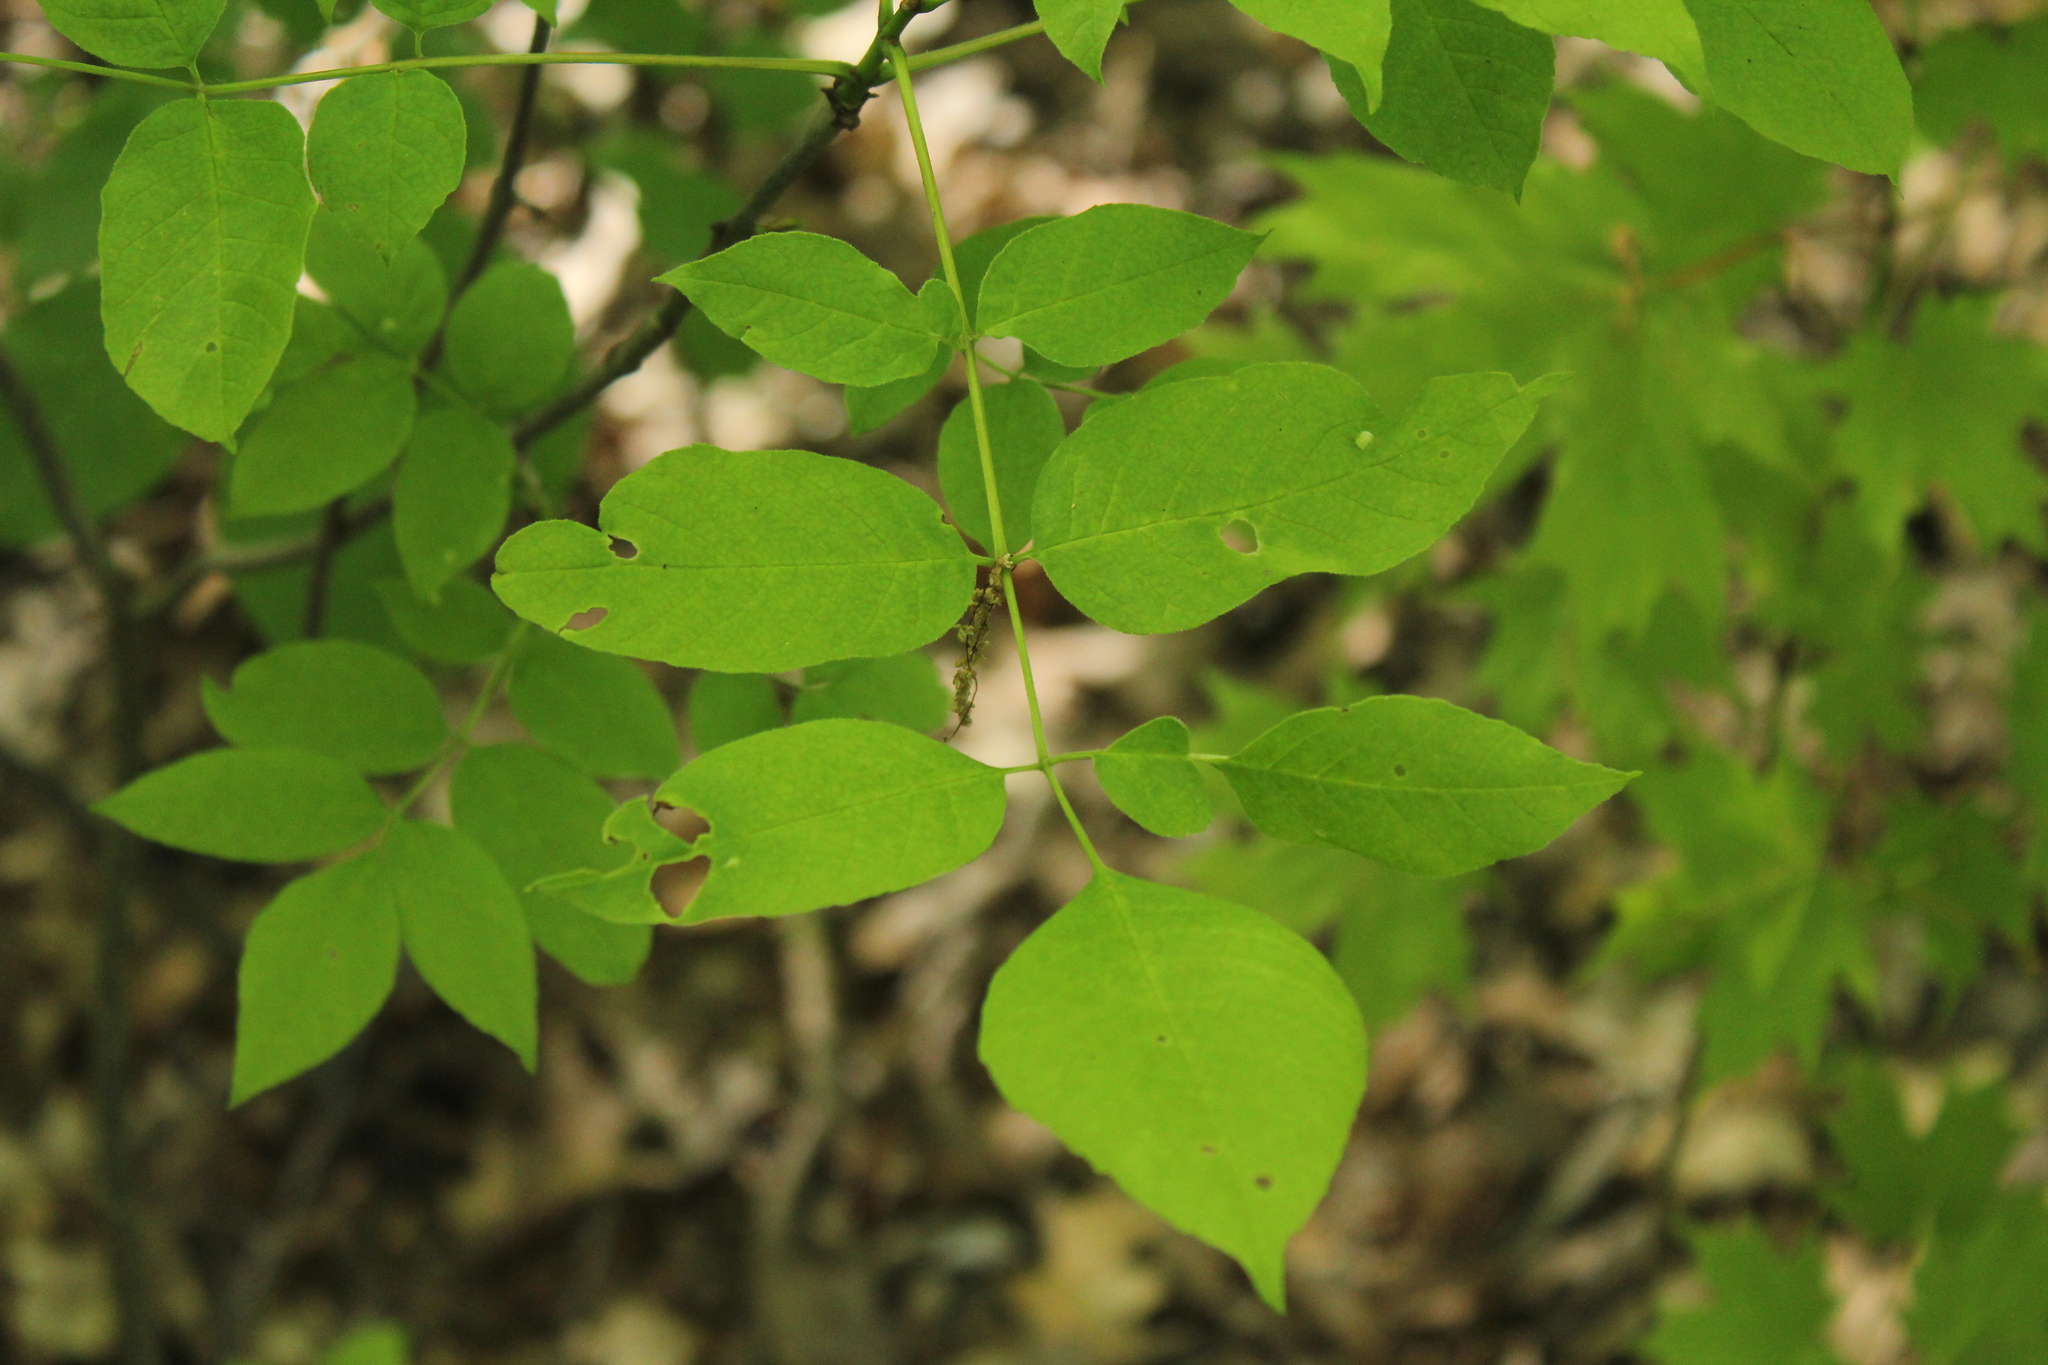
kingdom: Plantae
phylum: Tracheophyta
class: Magnoliopsida
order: Lamiales
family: Oleaceae
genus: Fraxinus
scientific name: Fraxinus pennsylvanica
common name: Green ash
